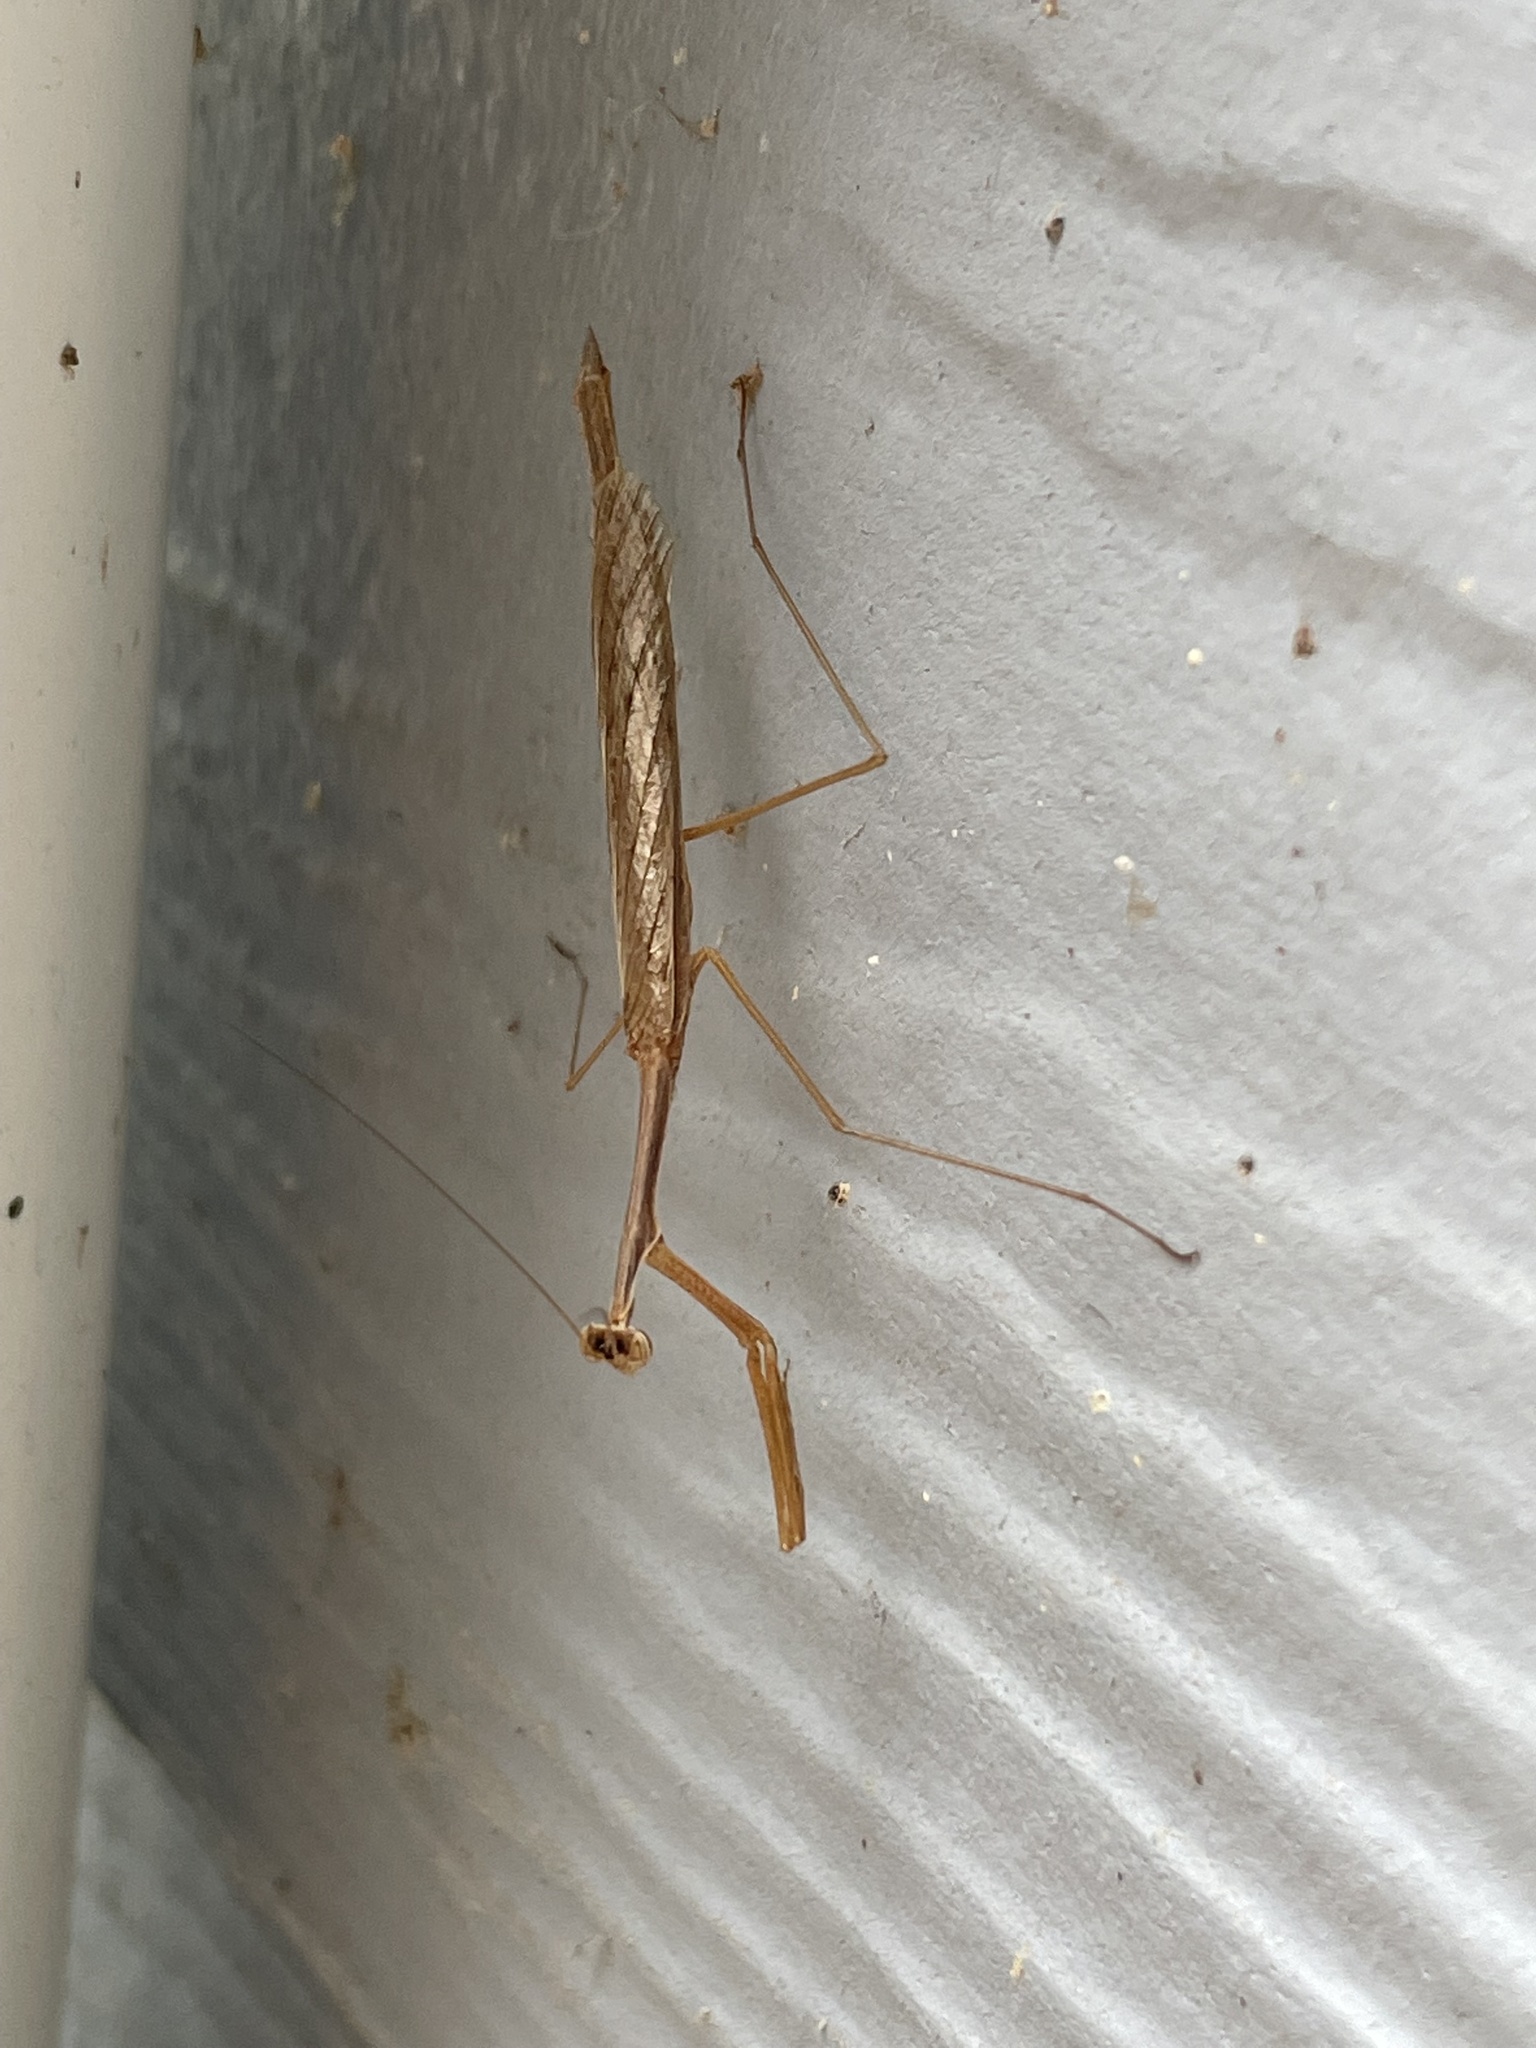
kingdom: Animalia
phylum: Arthropoda
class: Insecta
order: Mantodea
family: Thespidae
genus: Bistanta
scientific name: Bistanta campestris
